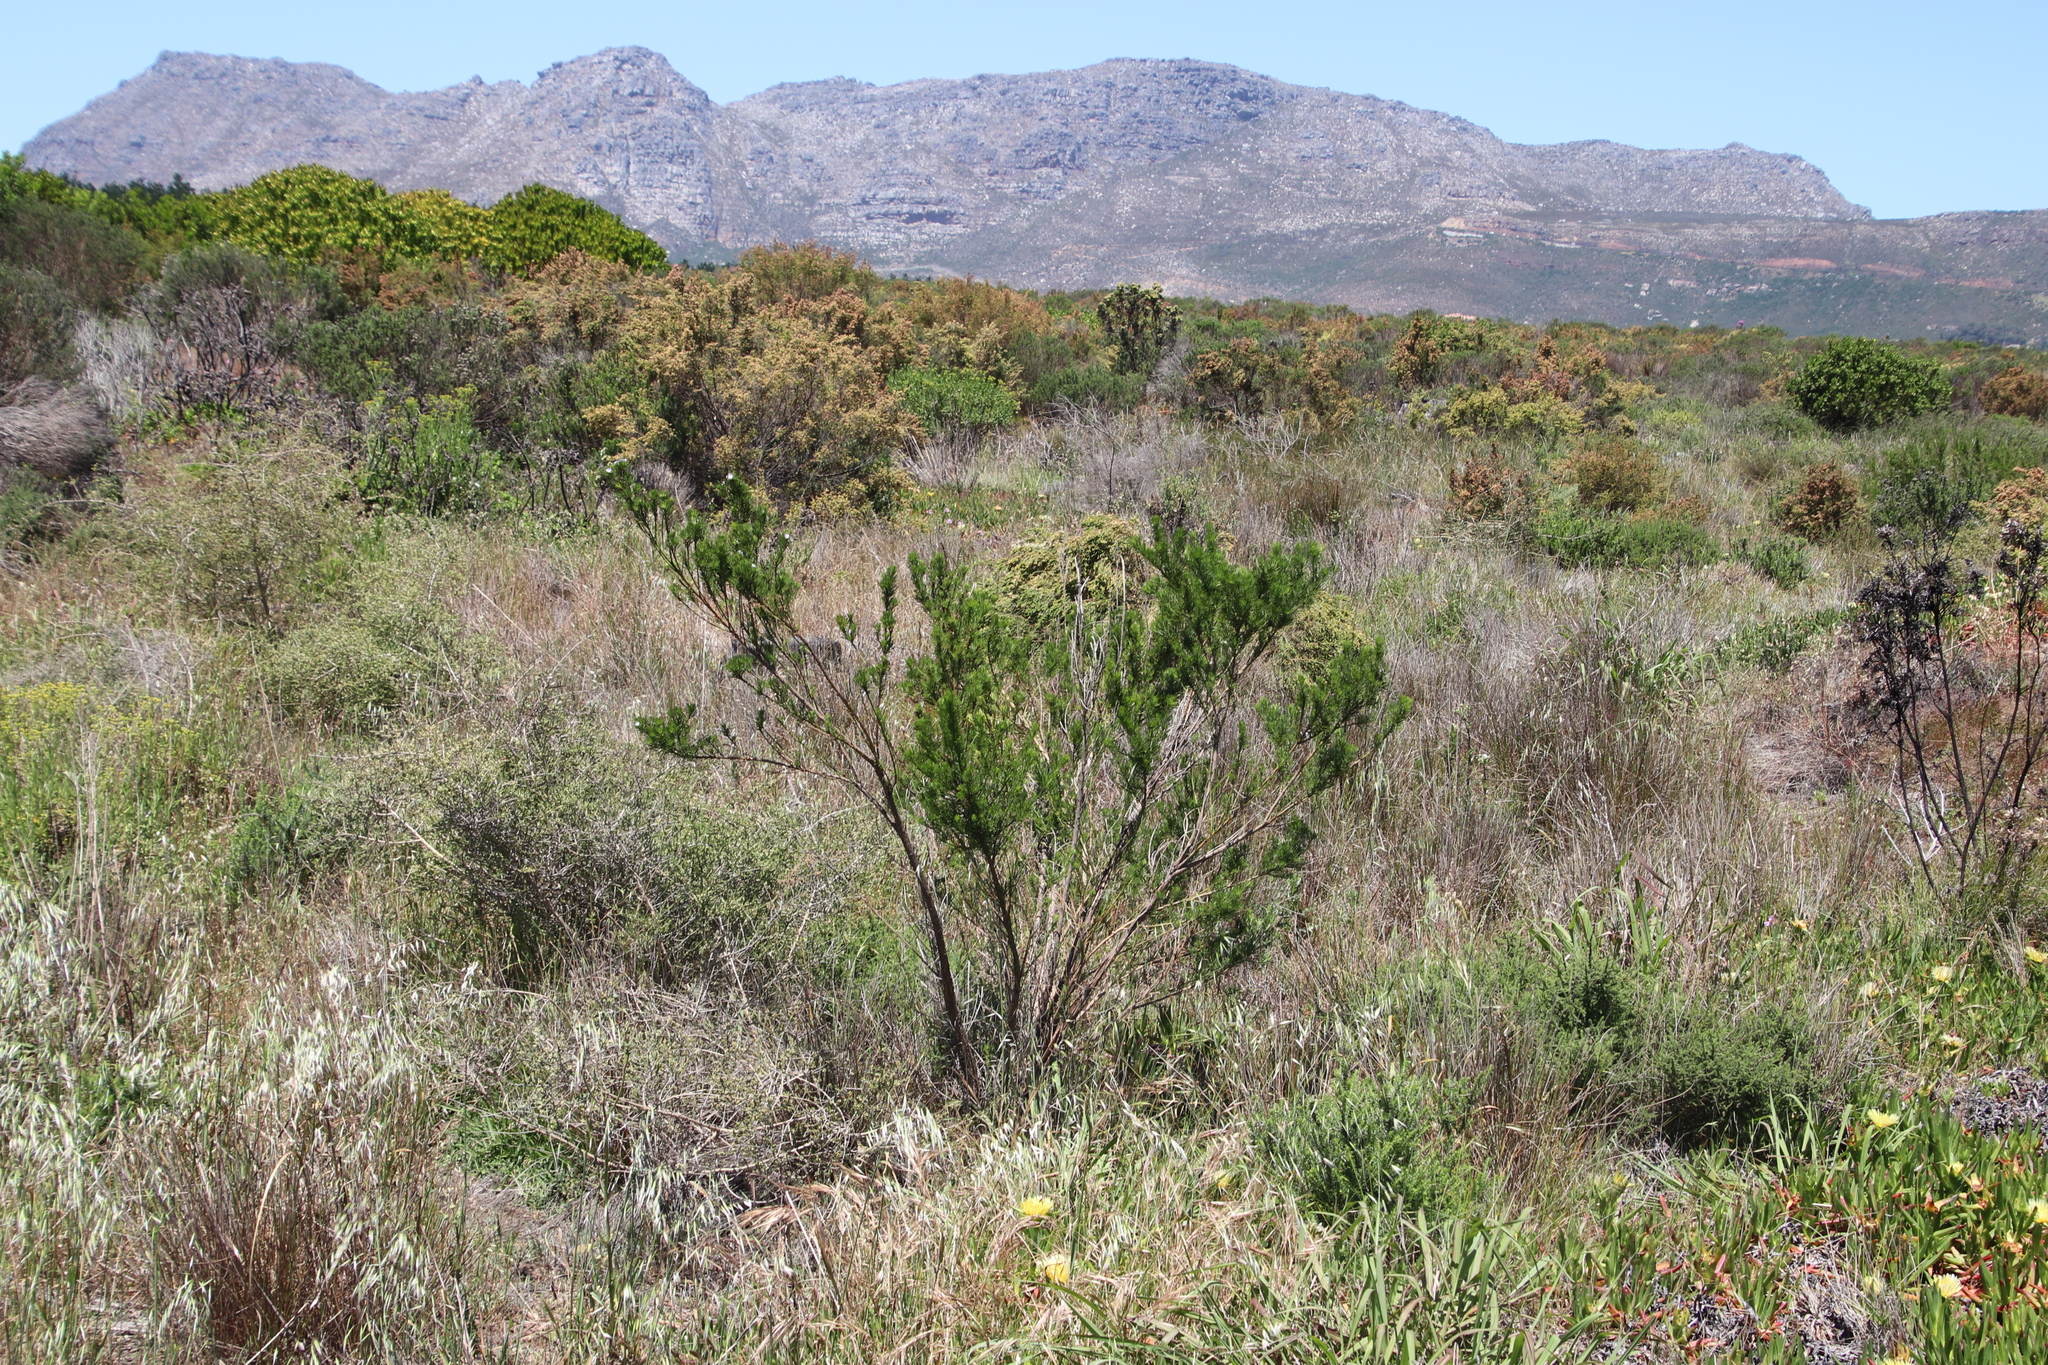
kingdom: Plantae
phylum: Tracheophyta
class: Magnoliopsida
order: Fabales
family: Fabaceae
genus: Psoralea
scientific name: Psoralea pinnata
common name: African scurfpea
